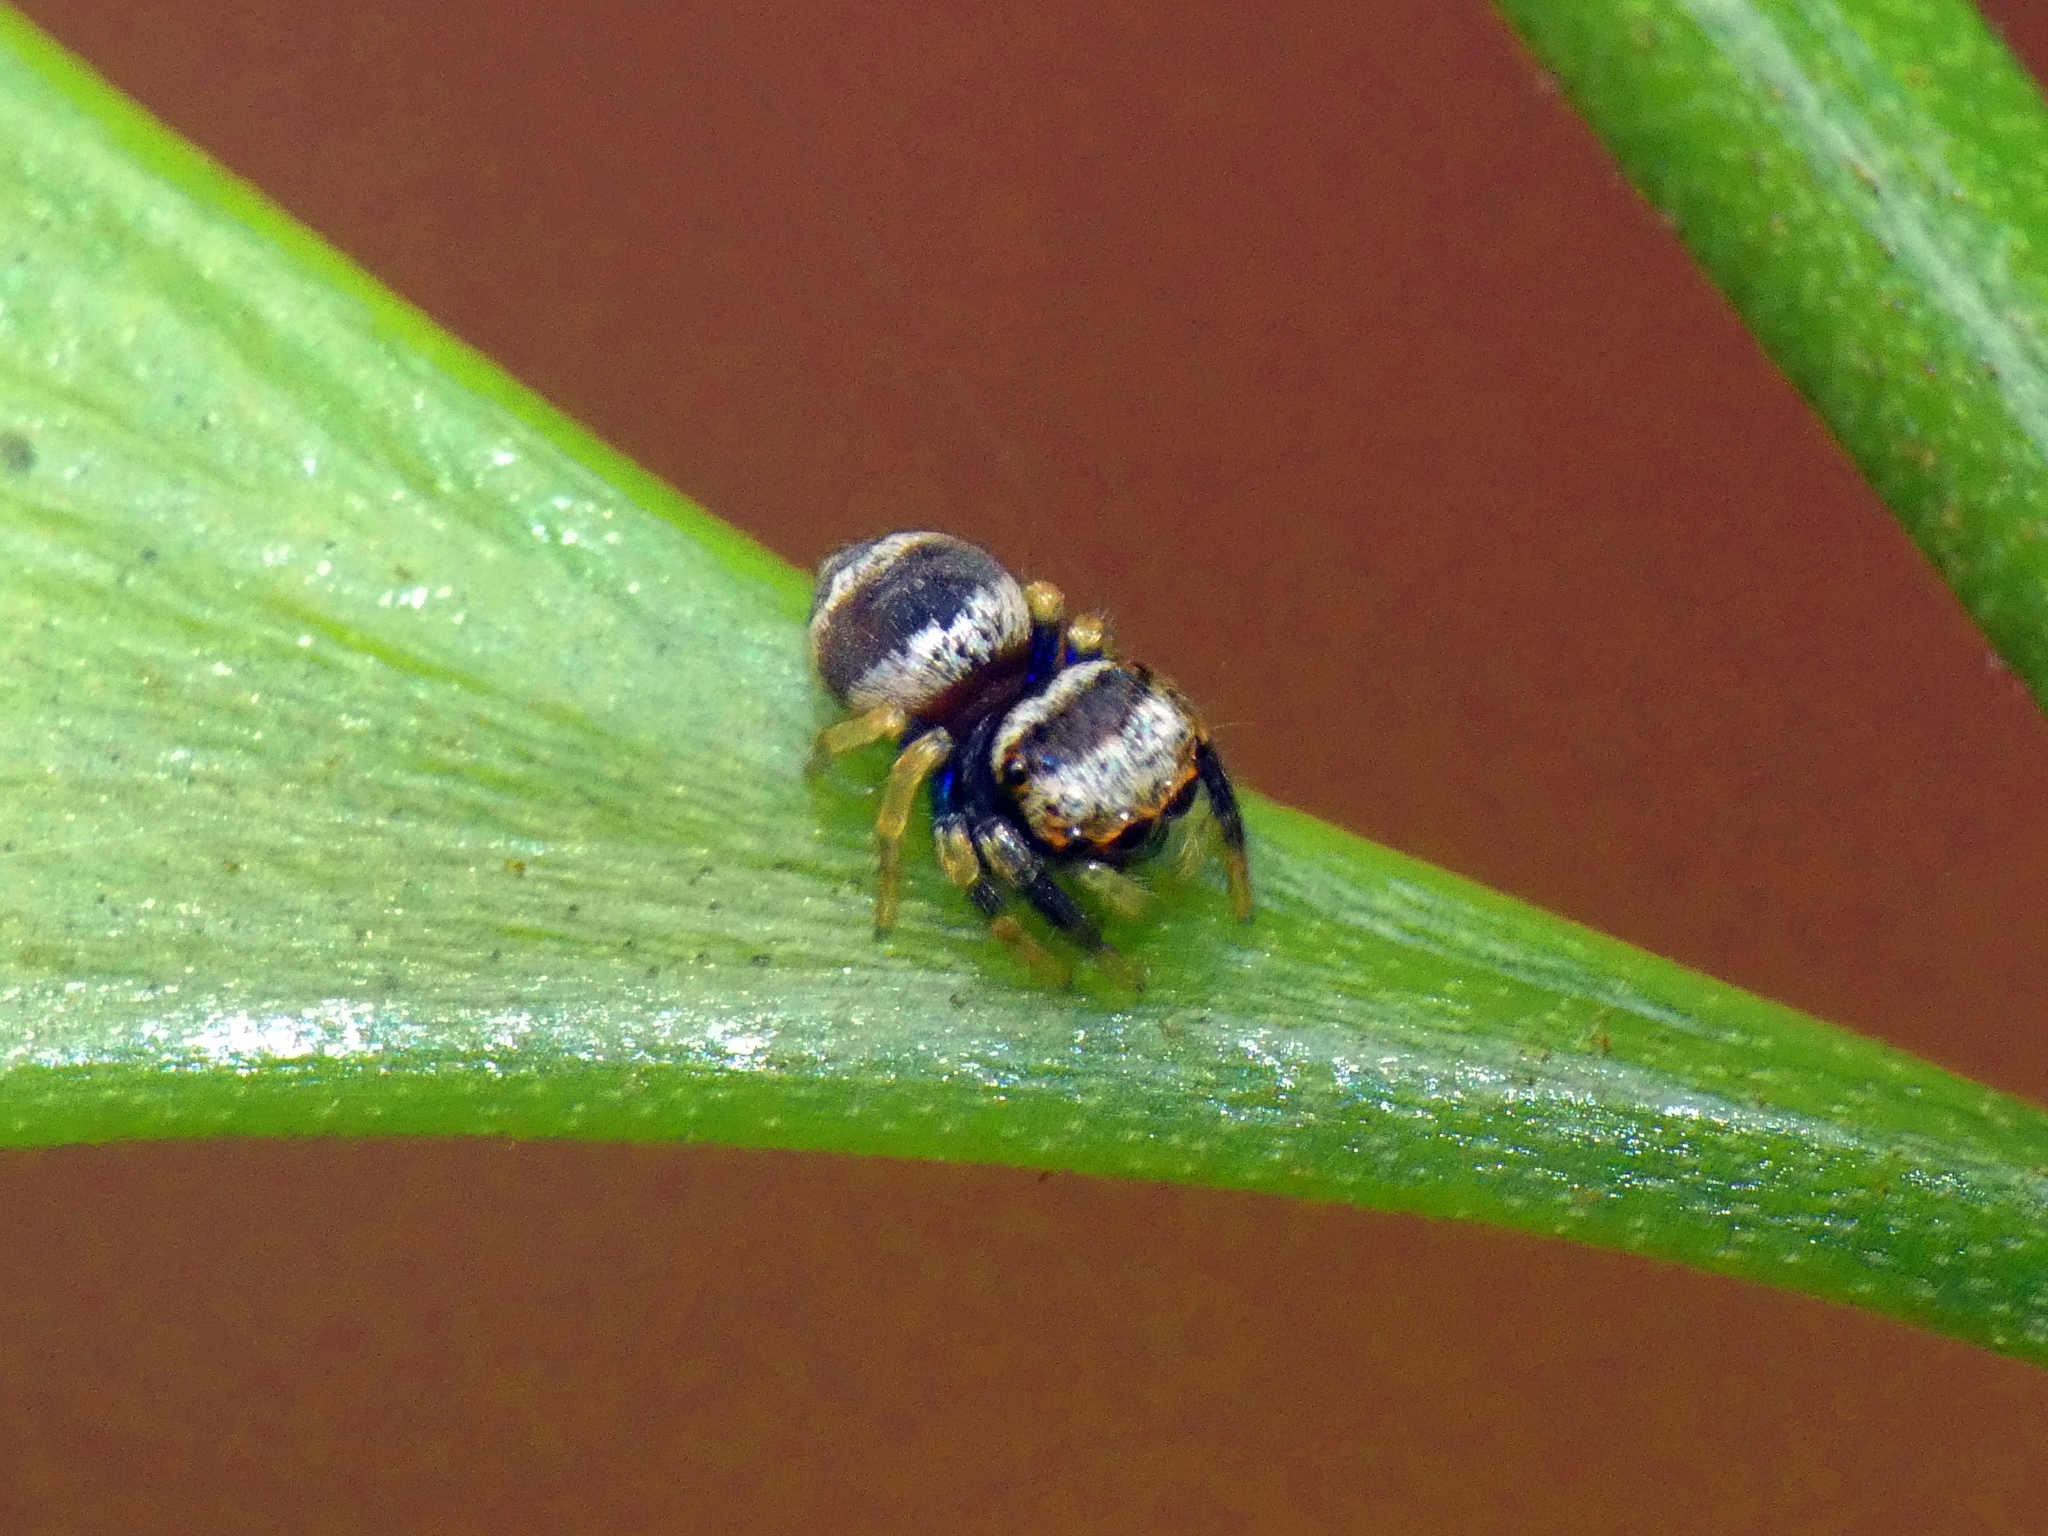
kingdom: Animalia
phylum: Arthropoda
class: Arachnida
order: Araneae
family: Salticidae
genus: Euryattus
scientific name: Euryattus bleekeri
